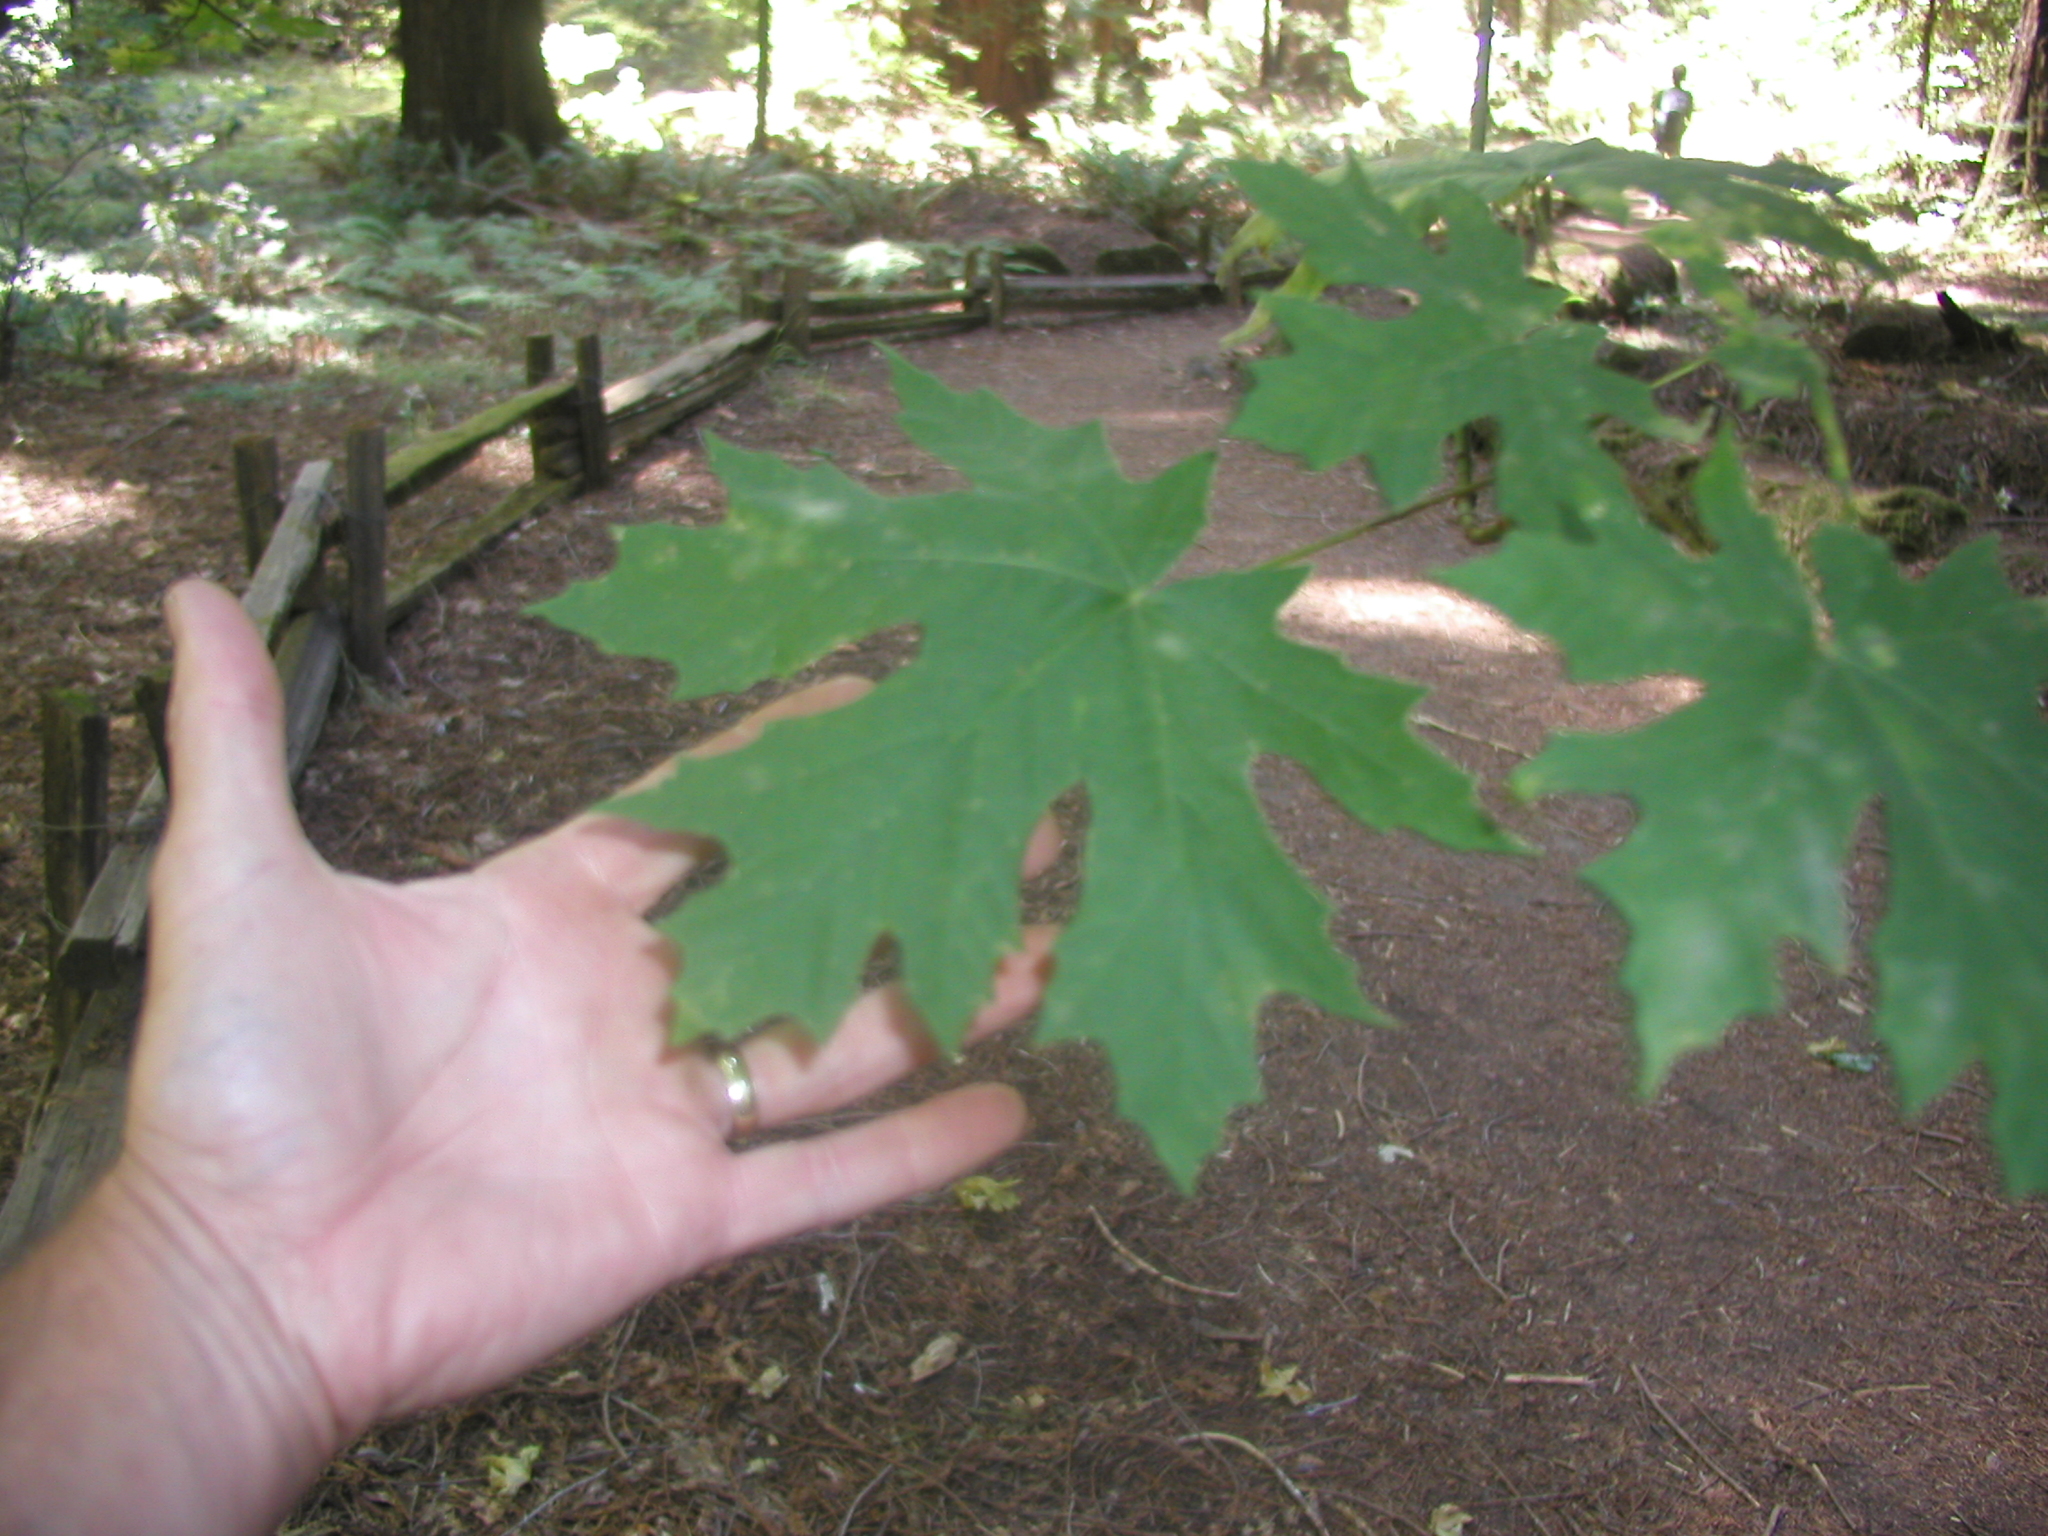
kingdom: Plantae
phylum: Tracheophyta
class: Magnoliopsida
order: Sapindales
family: Sapindaceae
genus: Acer
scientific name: Acer macrophyllum
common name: Oregon maple
